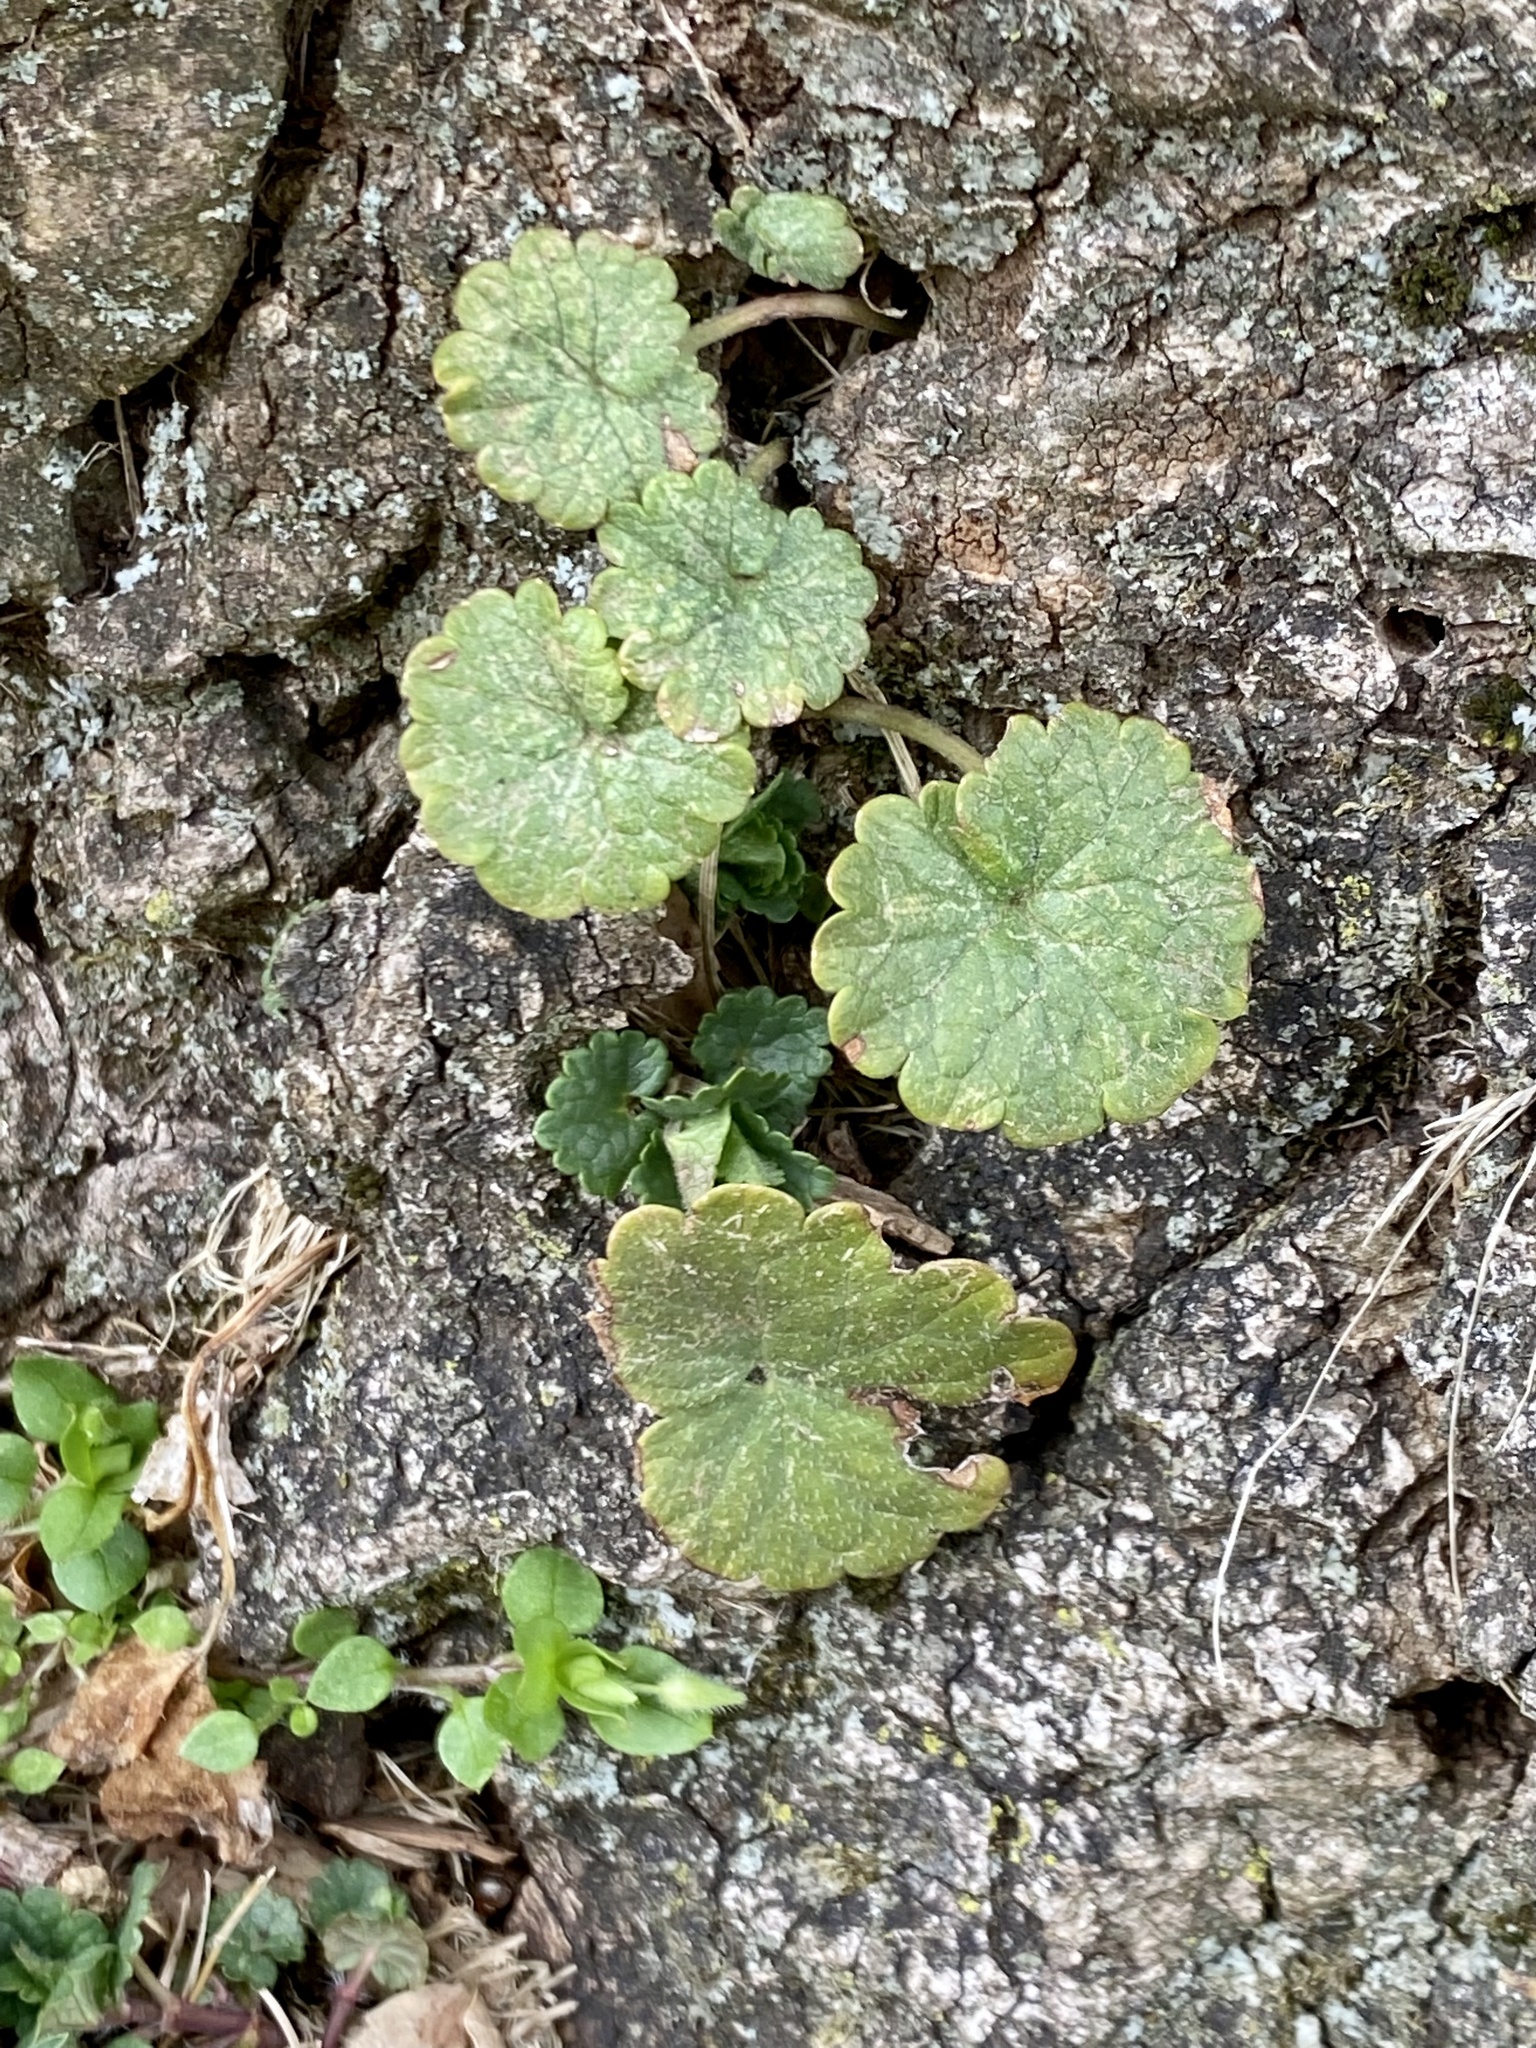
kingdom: Plantae
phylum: Tracheophyta
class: Magnoliopsida
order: Lamiales
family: Lamiaceae
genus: Glechoma
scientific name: Glechoma hederacea
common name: Ground ivy
